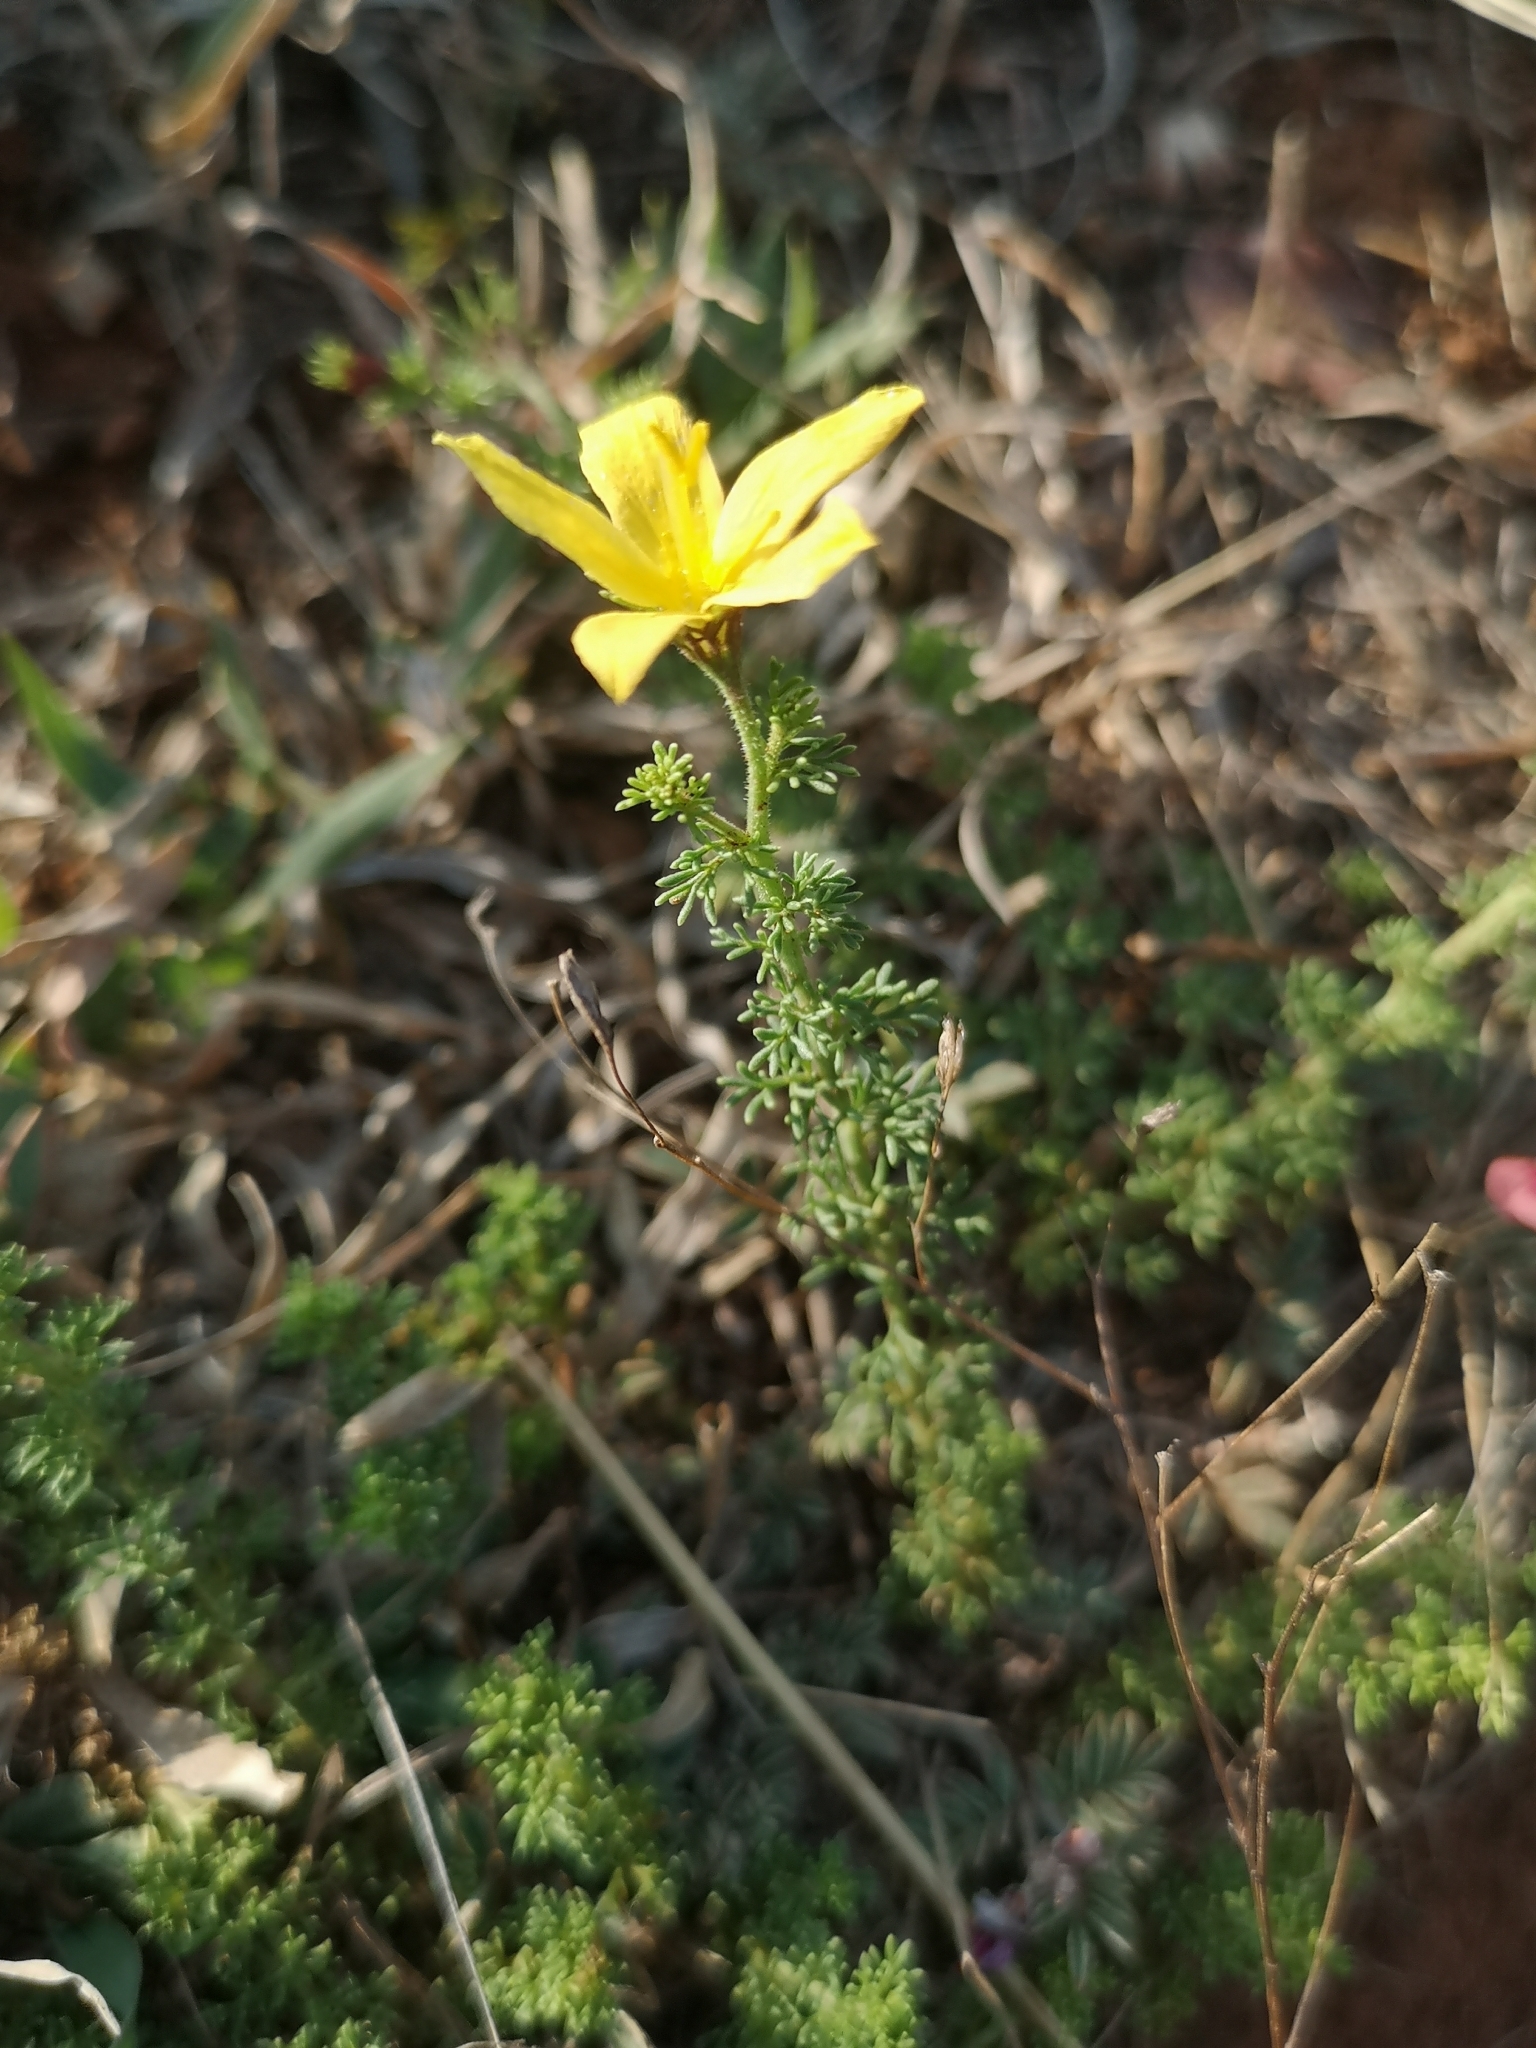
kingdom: Plantae
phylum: Tracheophyta
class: Magnoliopsida
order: Lamiales
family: Oleaceae
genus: Menodora
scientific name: Menodora africana
